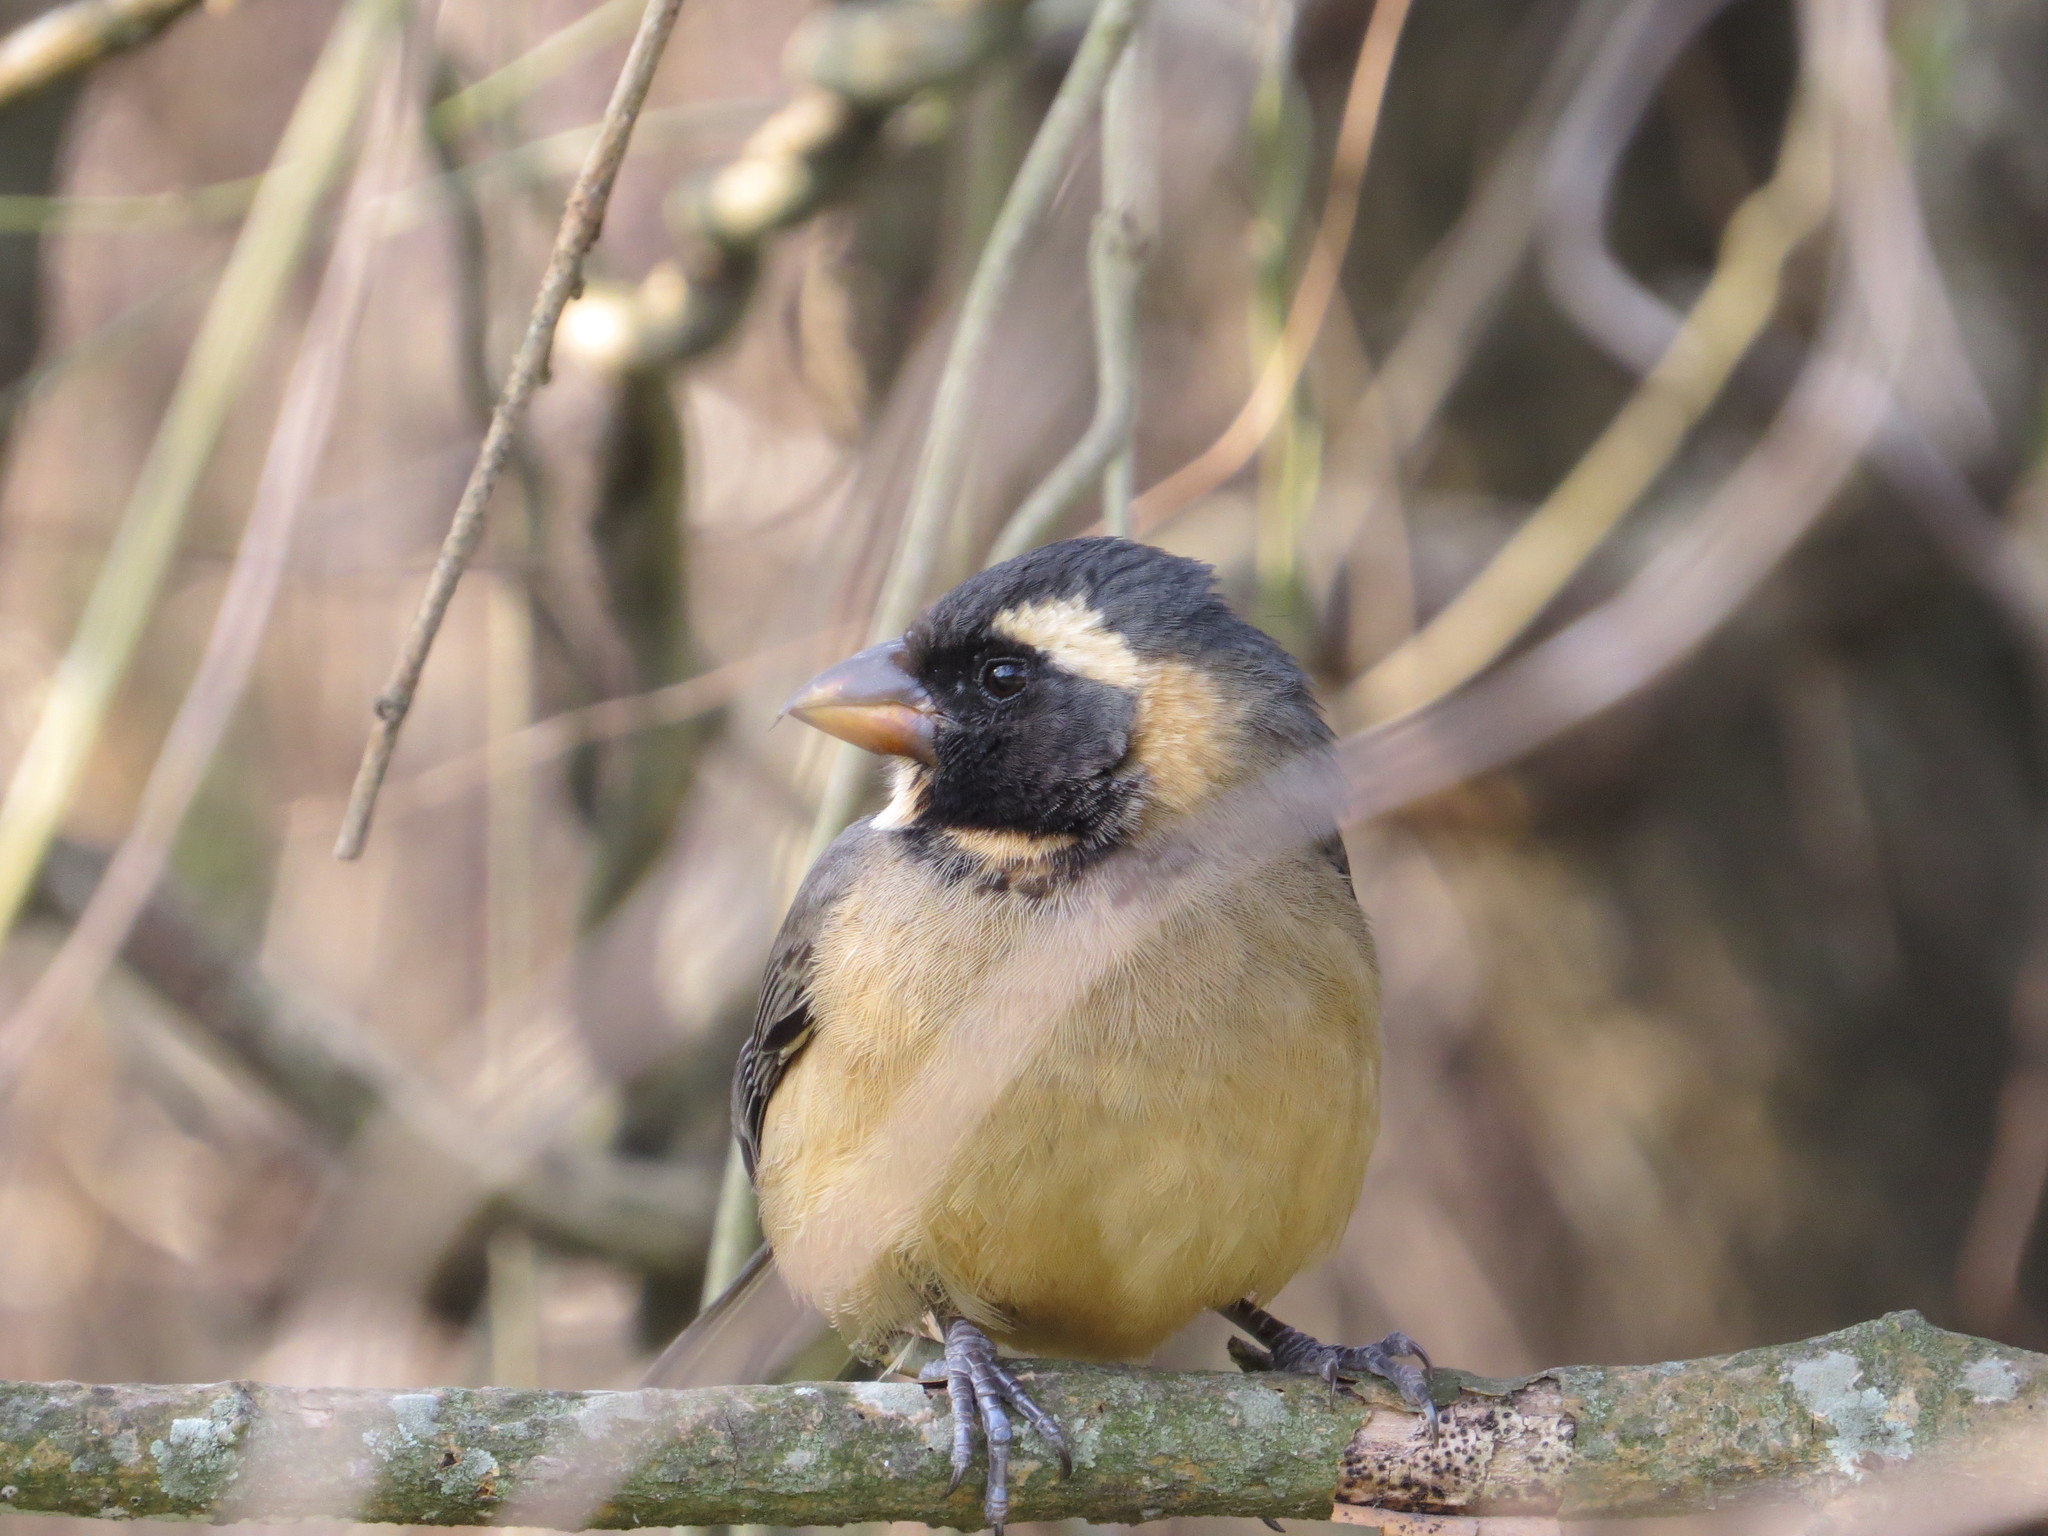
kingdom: Animalia
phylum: Chordata
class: Aves
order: Passeriformes
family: Thraupidae
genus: Saltator
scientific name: Saltator aurantiirostris
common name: Golden-billed saltator
